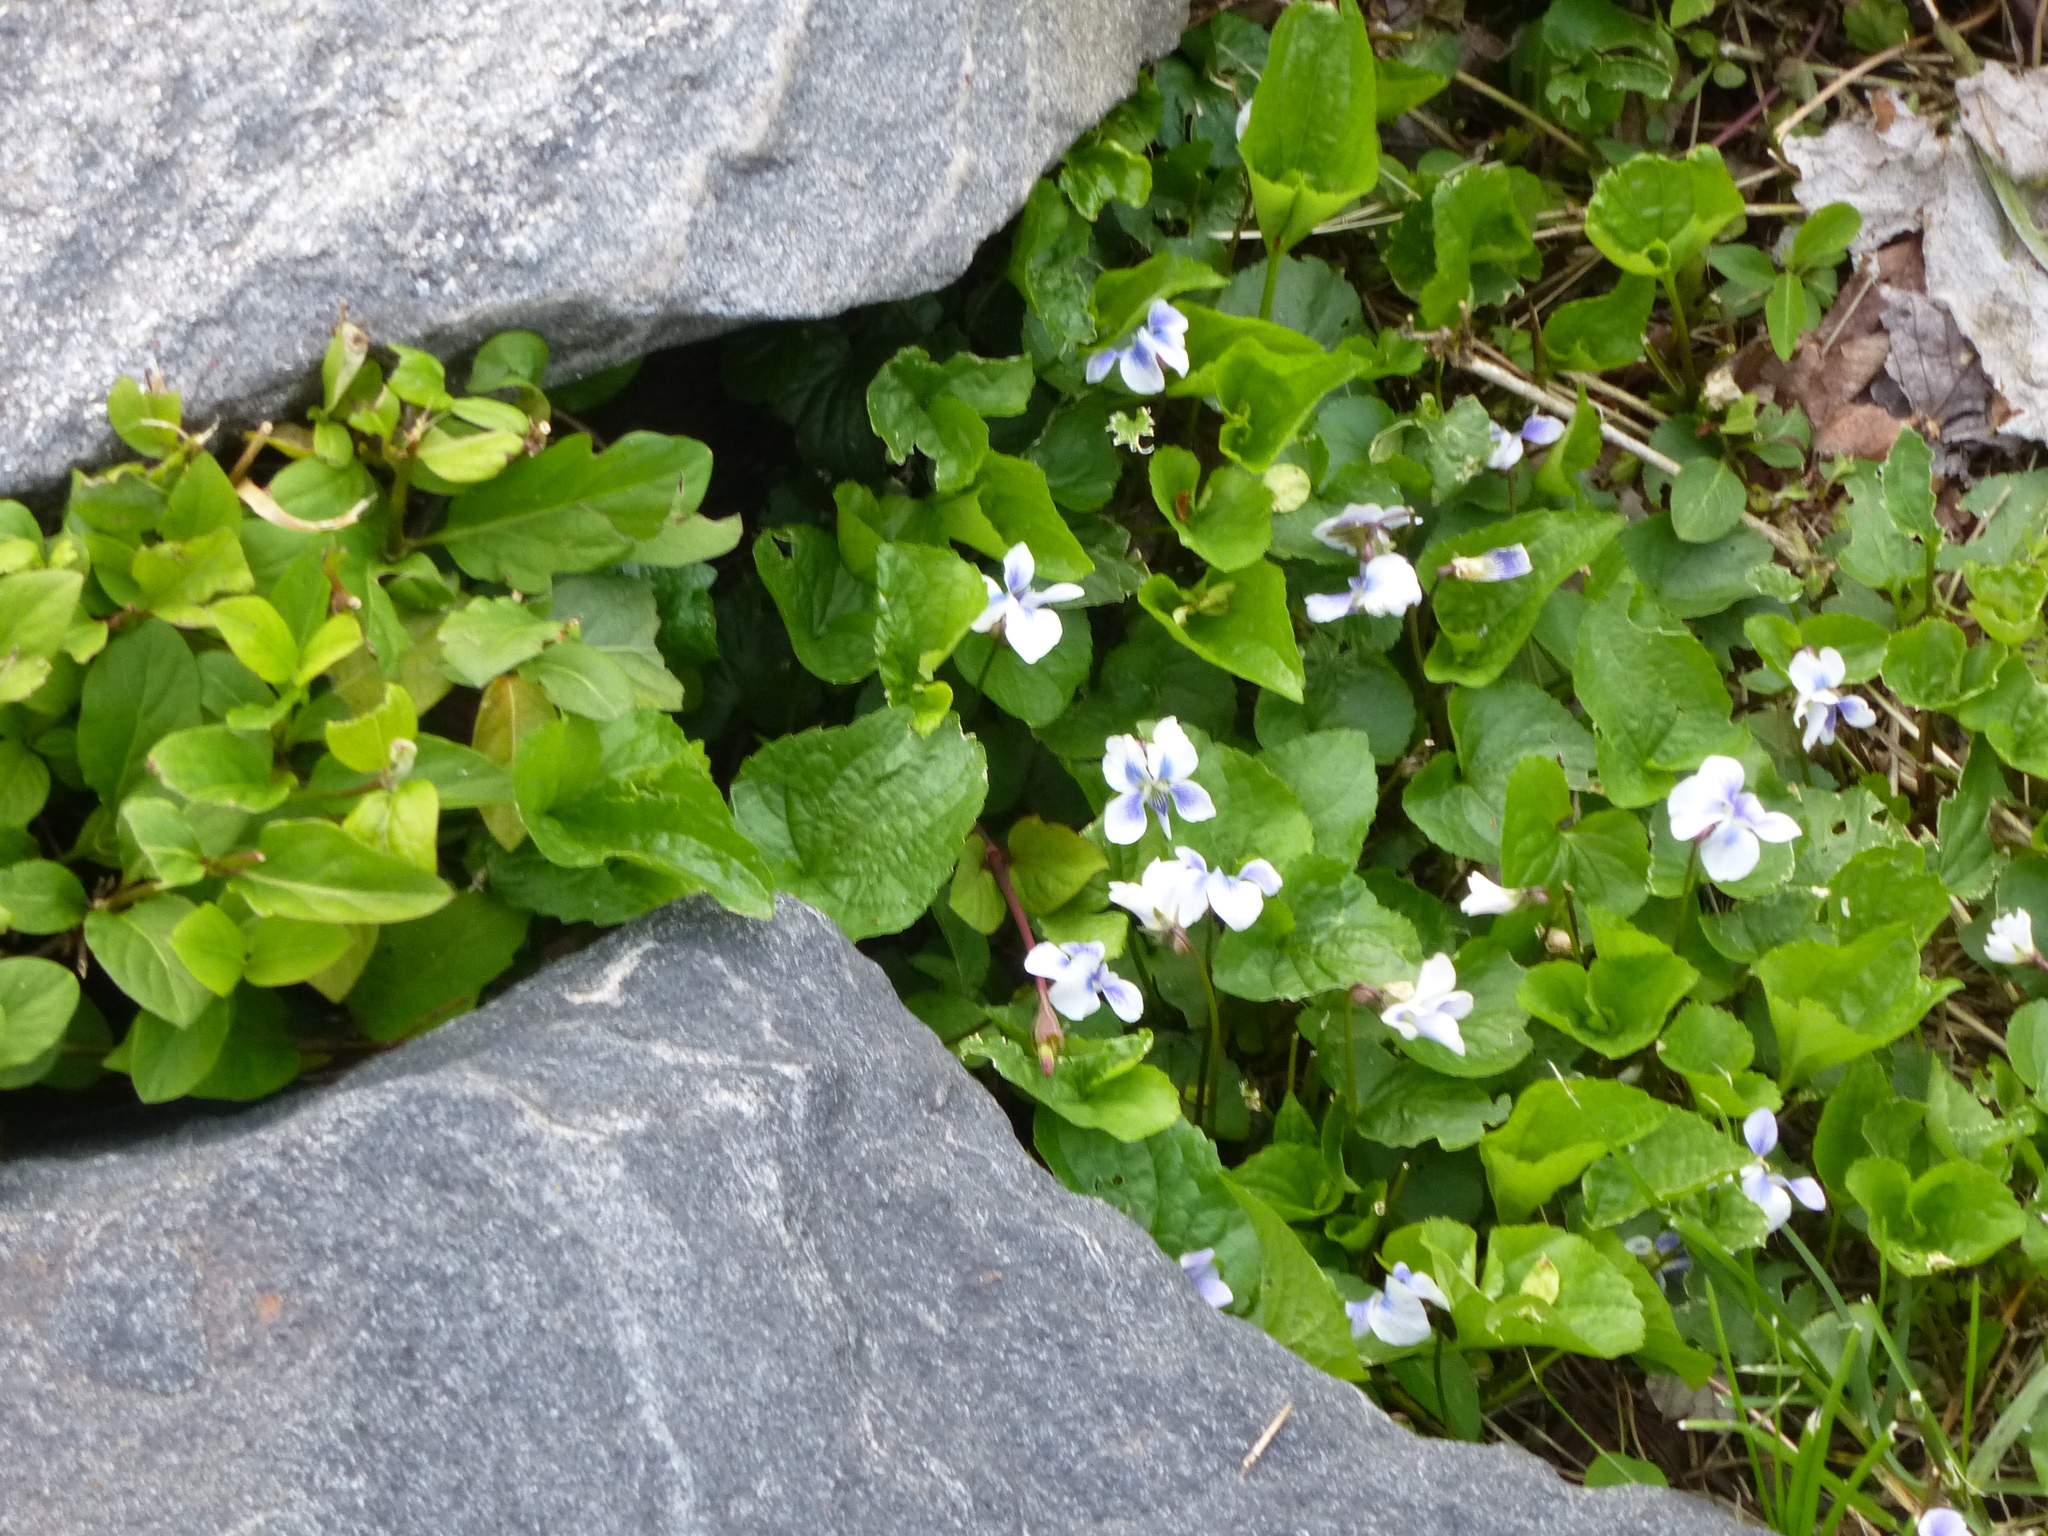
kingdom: Plantae
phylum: Tracheophyta
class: Magnoliopsida
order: Malpighiales
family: Violaceae
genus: Viola
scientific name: Viola sororia
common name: Dooryard violet
